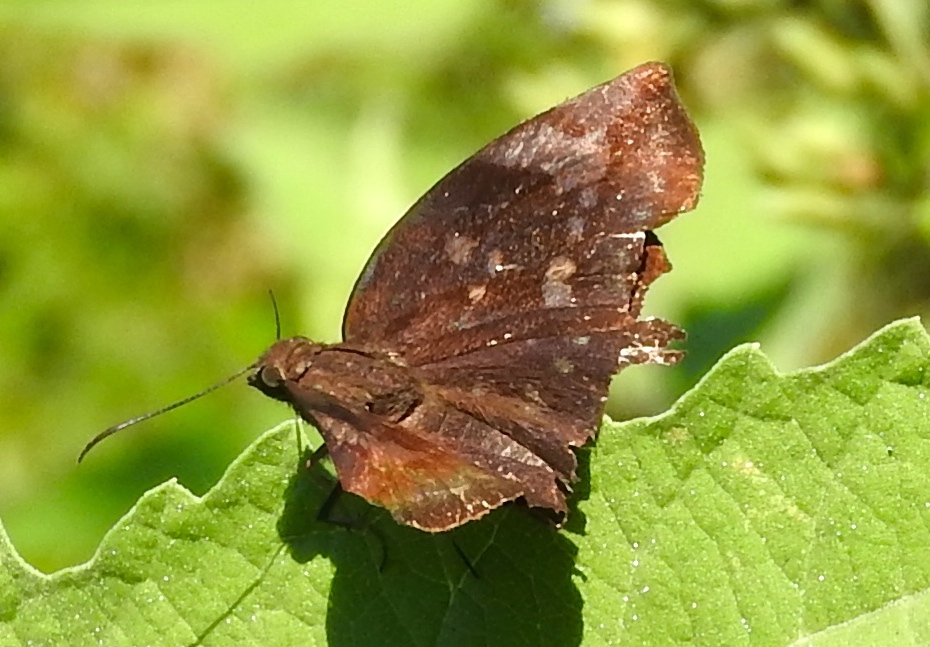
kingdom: Animalia
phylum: Arthropoda
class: Insecta
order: Lepidoptera
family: Hesperiidae
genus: Achlyodes
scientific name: Achlyodes
